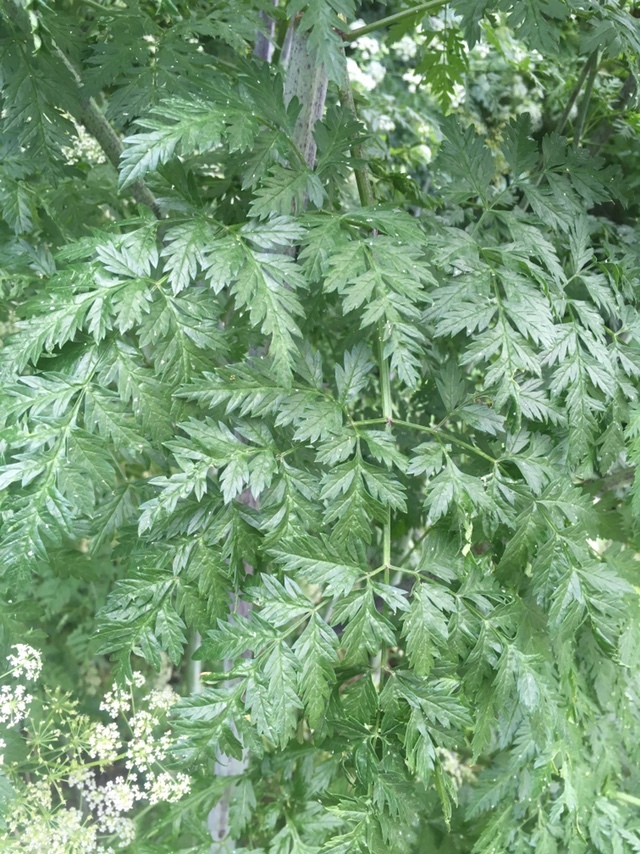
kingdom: Plantae
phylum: Tracheophyta
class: Magnoliopsida
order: Apiales
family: Apiaceae
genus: Conium
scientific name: Conium maculatum
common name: Hemlock
